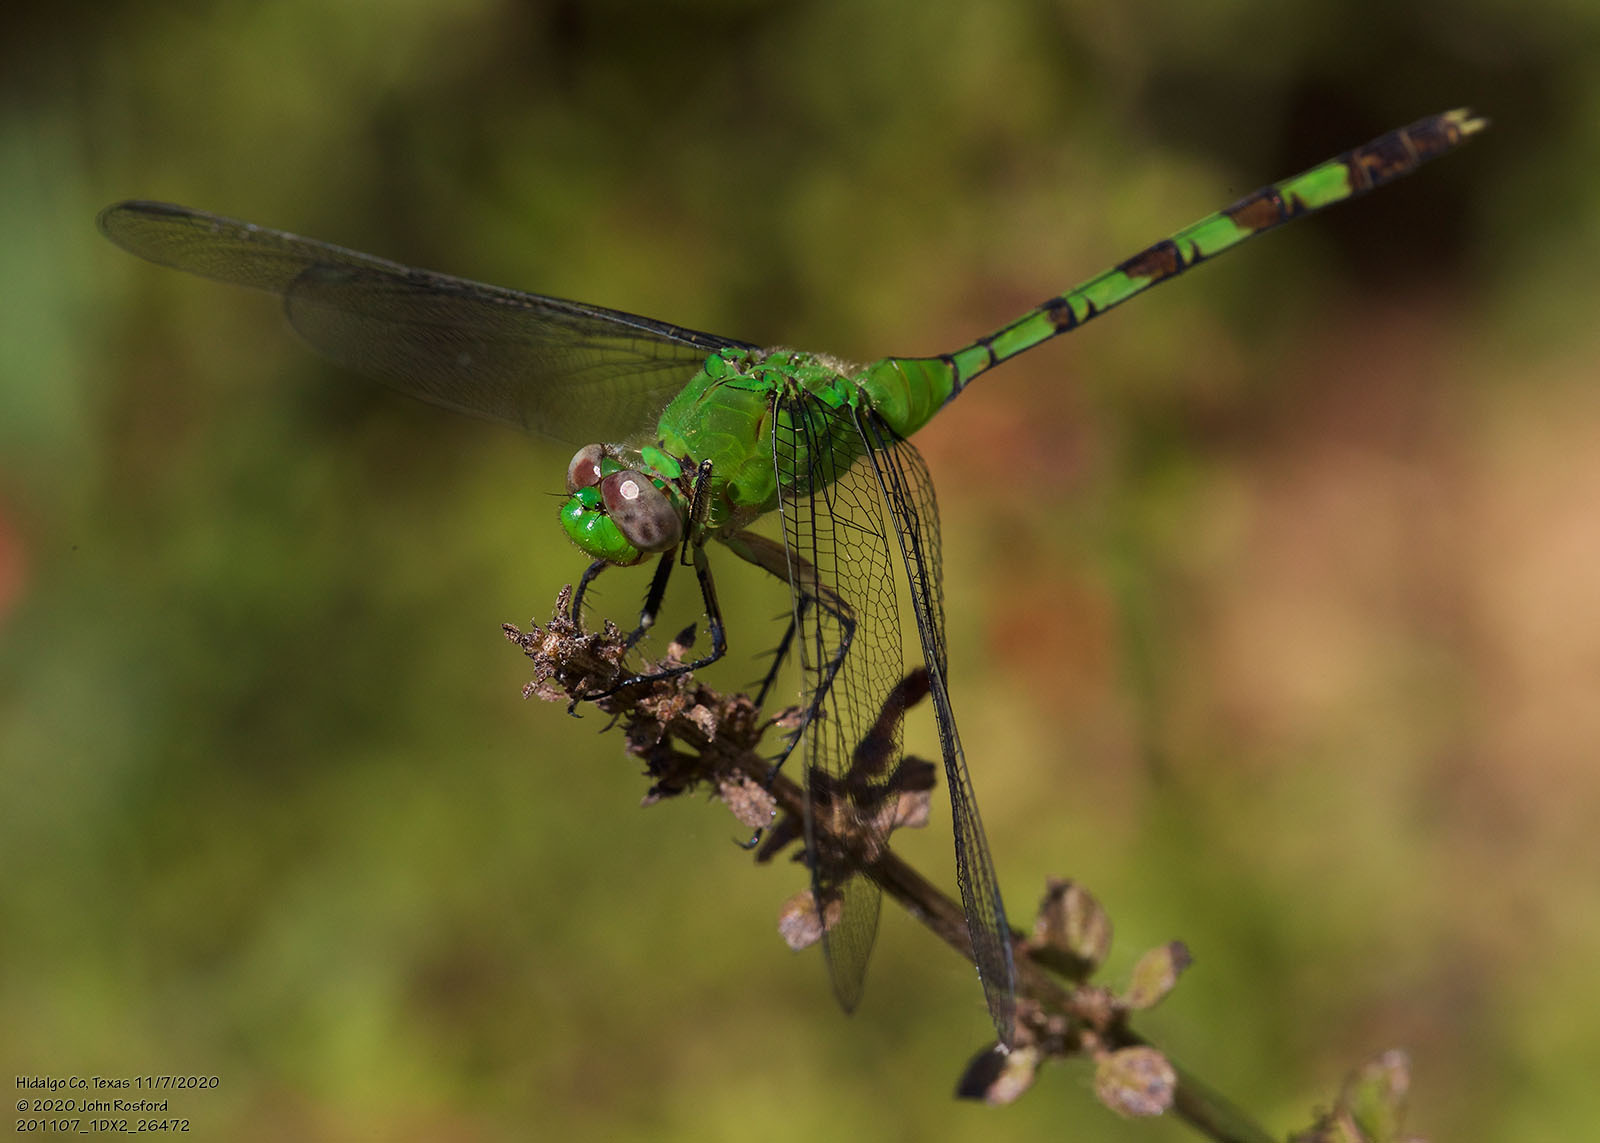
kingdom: Animalia
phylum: Arthropoda
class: Insecta
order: Odonata
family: Libellulidae
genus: Erythemis
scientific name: Erythemis vesiculosa
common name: Great pondhawk
